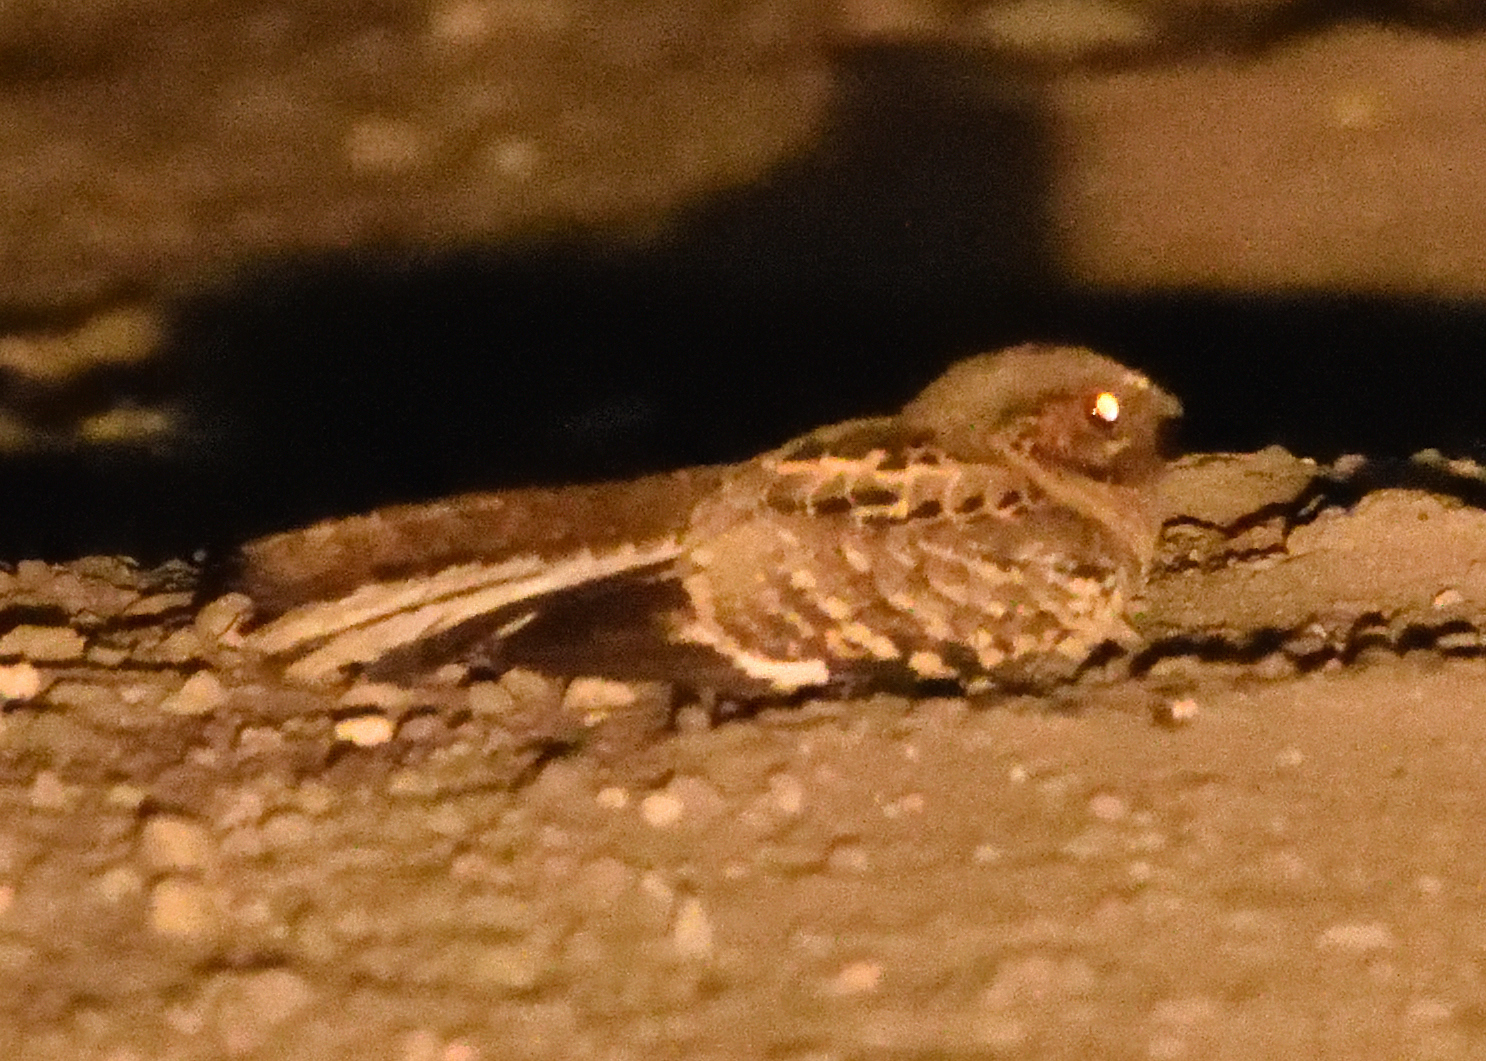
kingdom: Animalia
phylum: Chordata
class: Aves
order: Caprimulgiformes
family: Caprimulgidae
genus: Nyctidromus
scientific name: Nyctidromus albicollis
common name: Pauraque
